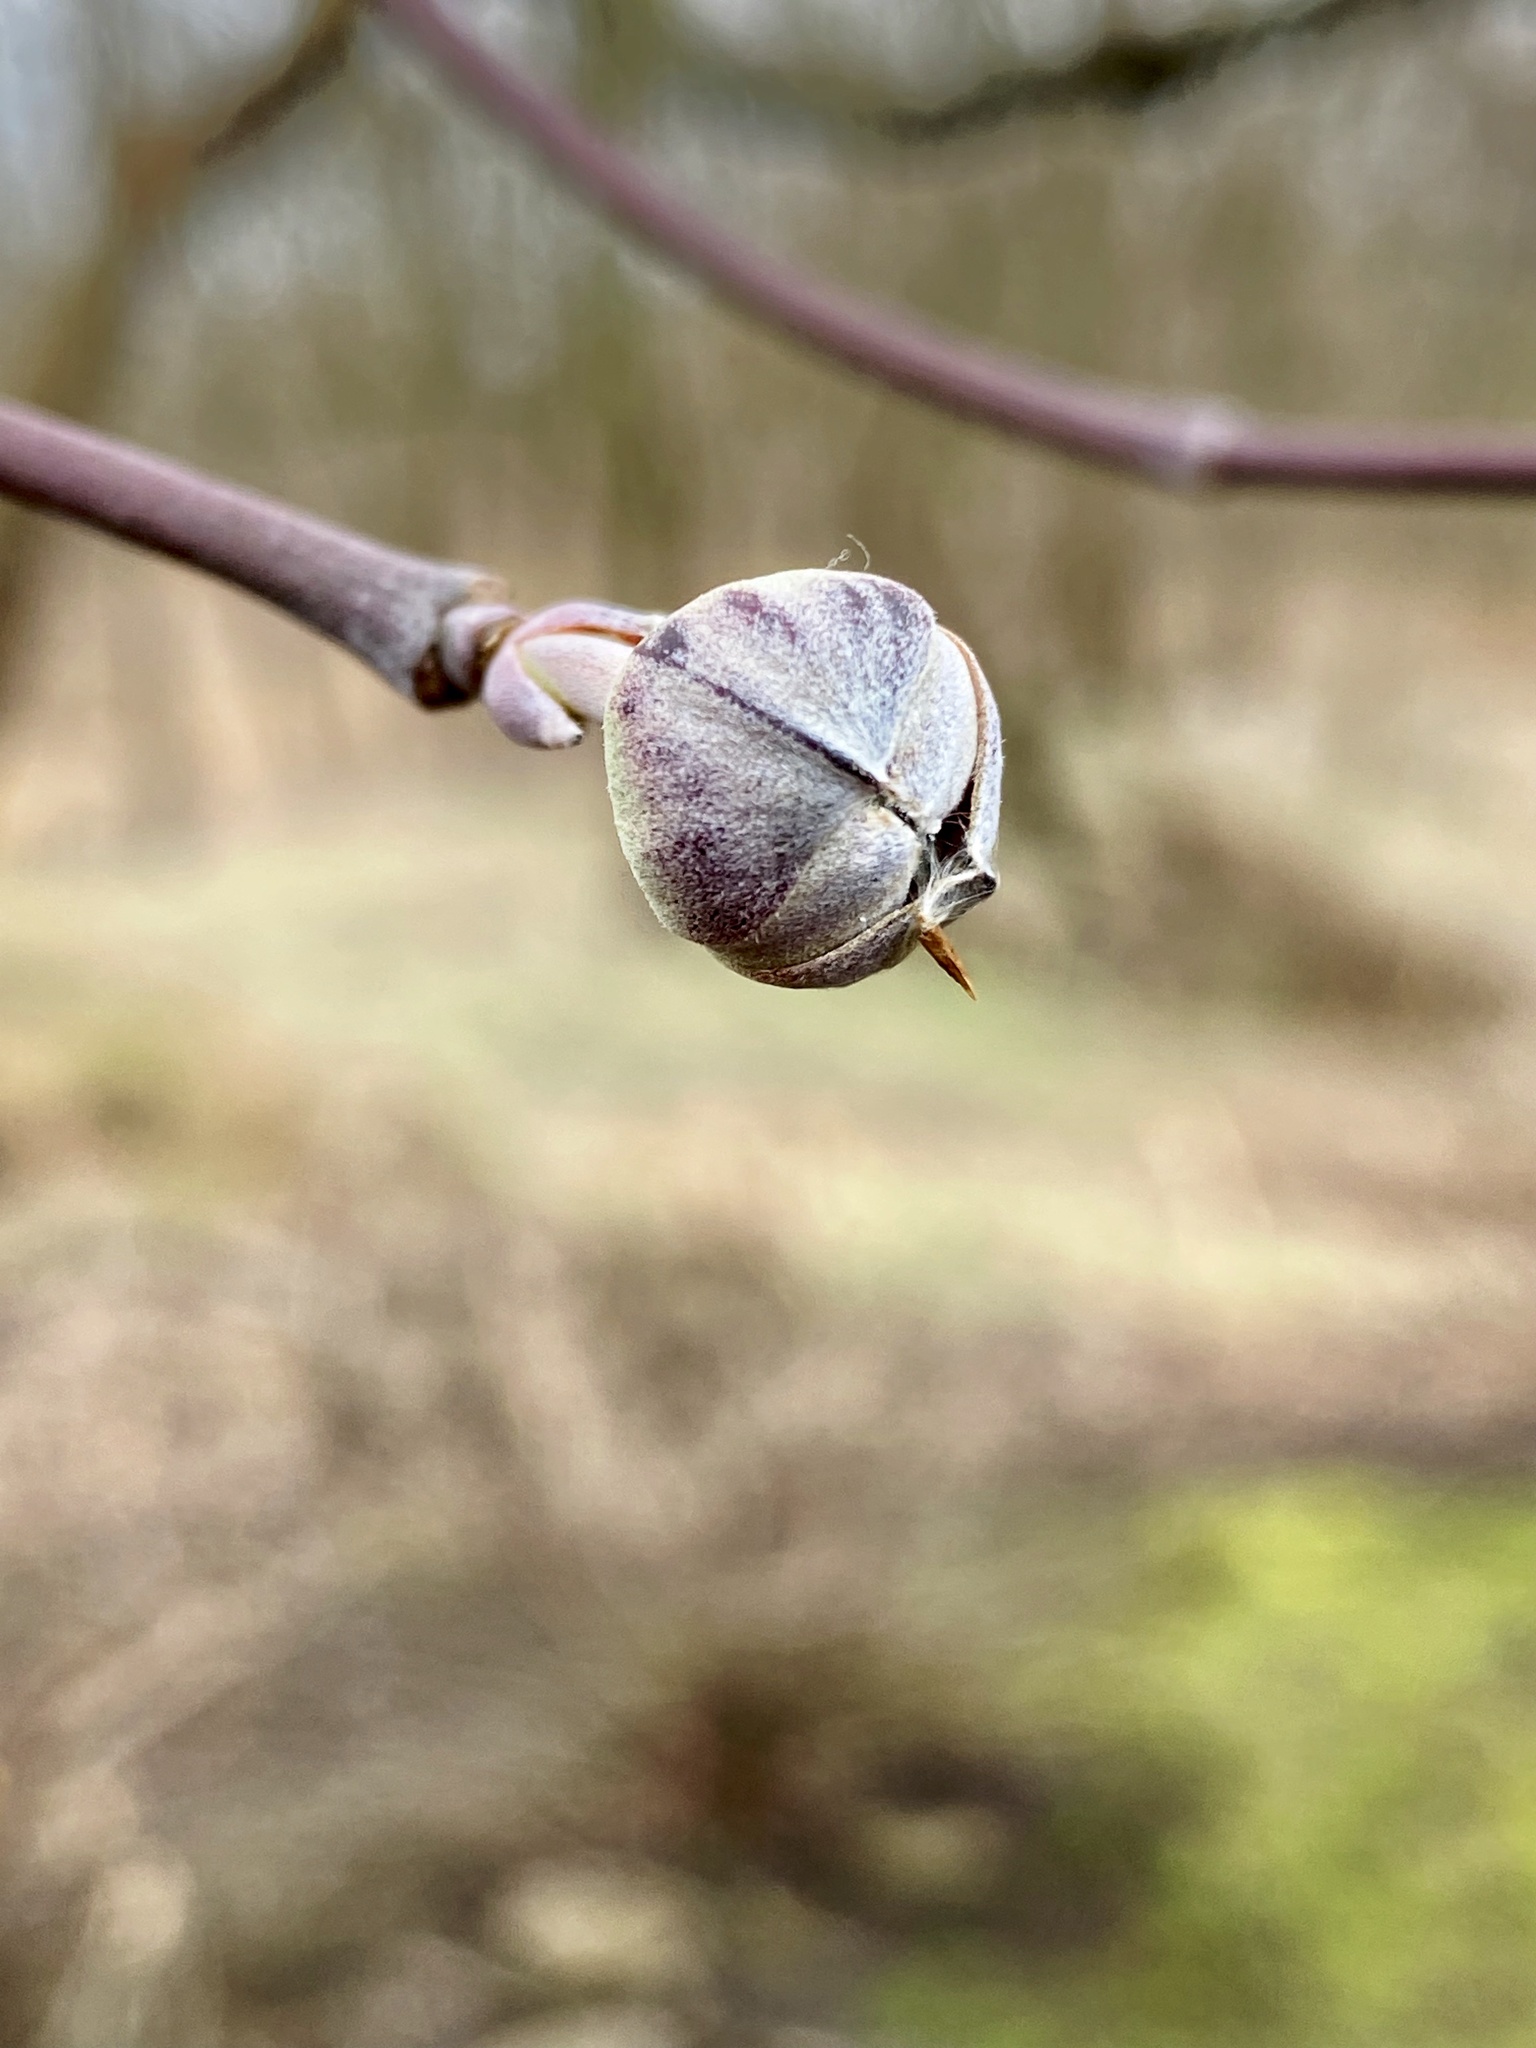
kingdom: Plantae
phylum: Tracheophyta
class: Magnoliopsida
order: Cornales
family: Cornaceae
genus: Cornus
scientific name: Cornus florida
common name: Flowering dogwood
